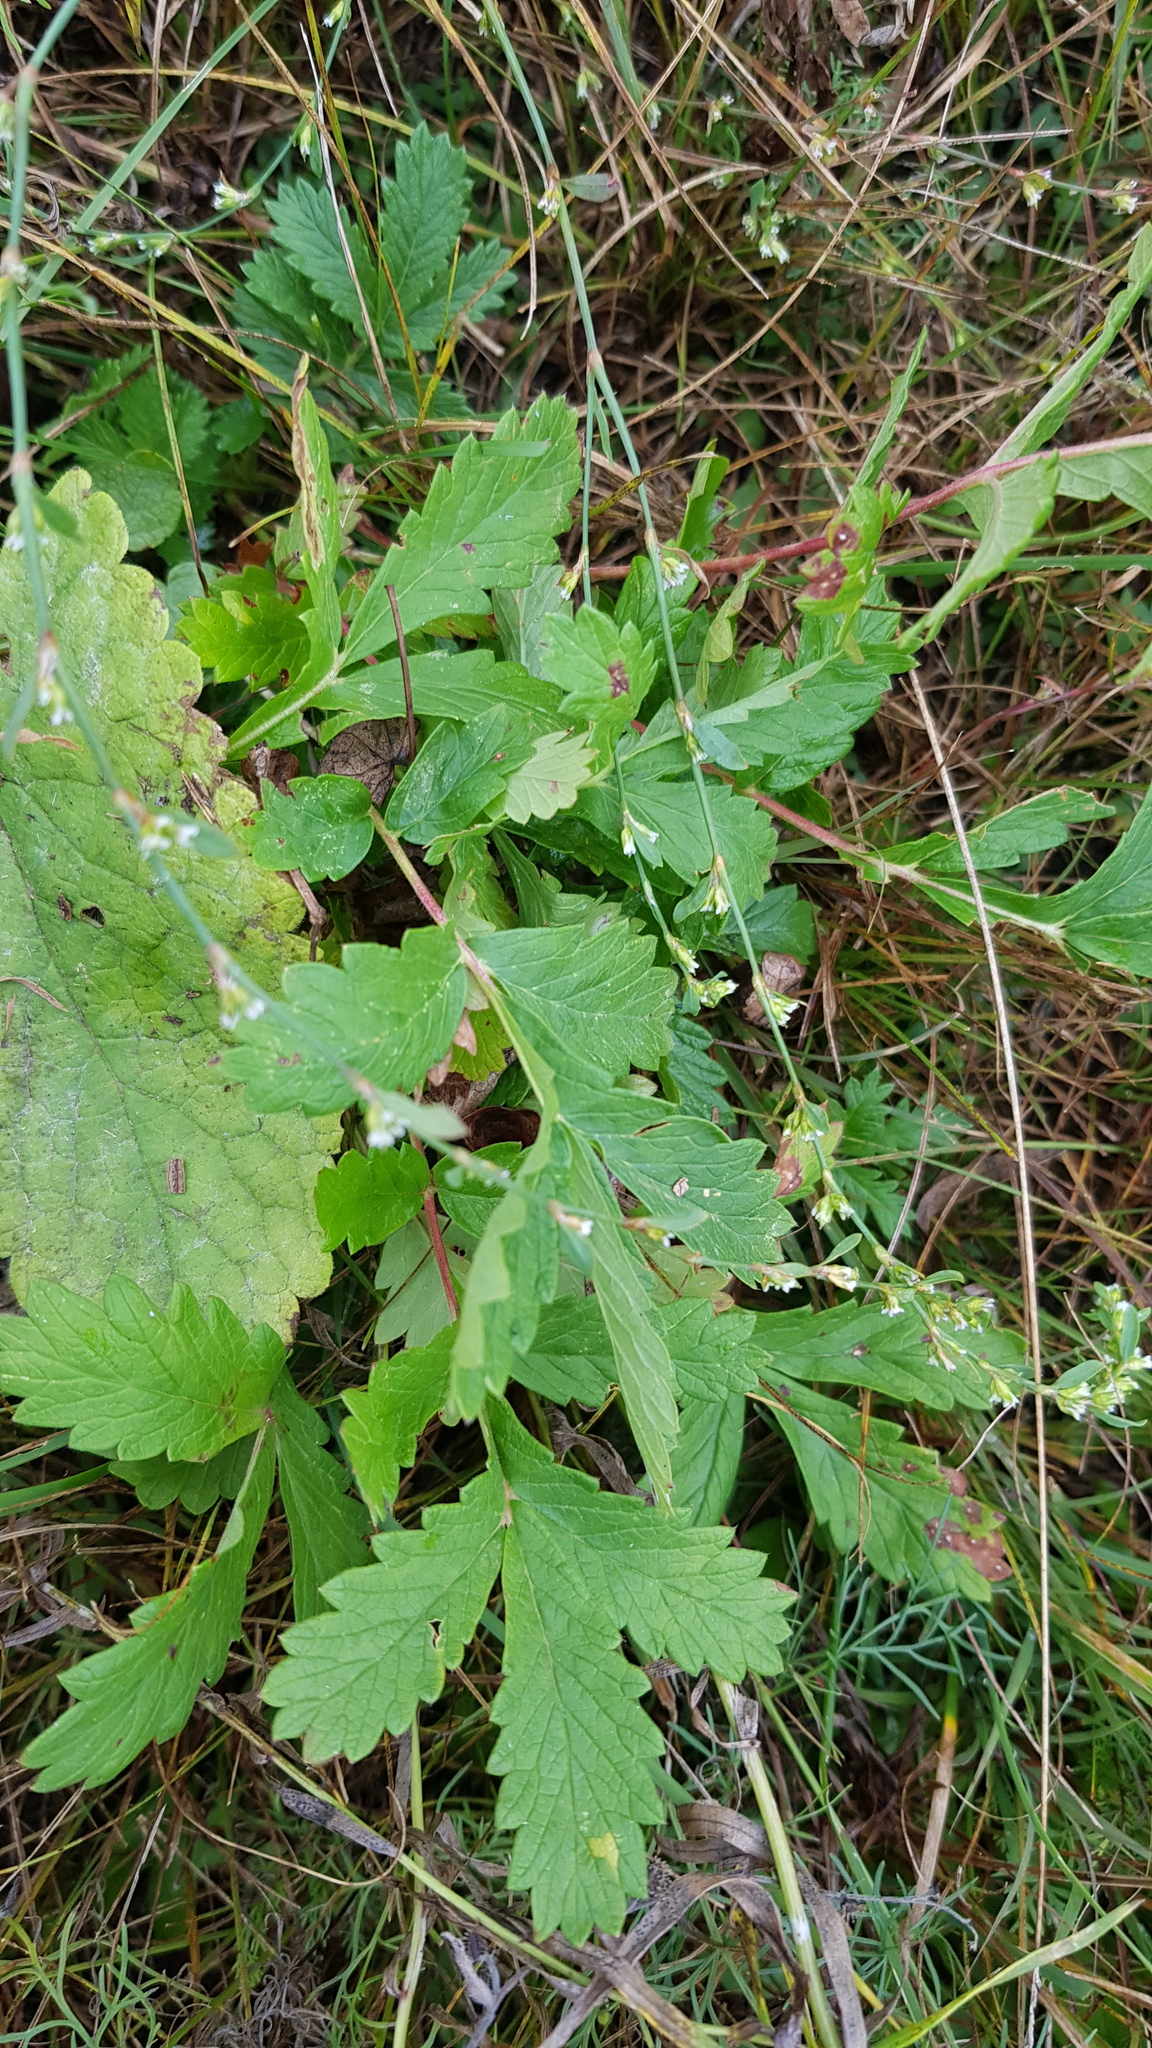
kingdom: Plantae
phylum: Tracheophyta
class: Magnoliopsida
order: Rosales
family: Rosaceae
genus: Potentilla
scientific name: Potentilla longifolia
